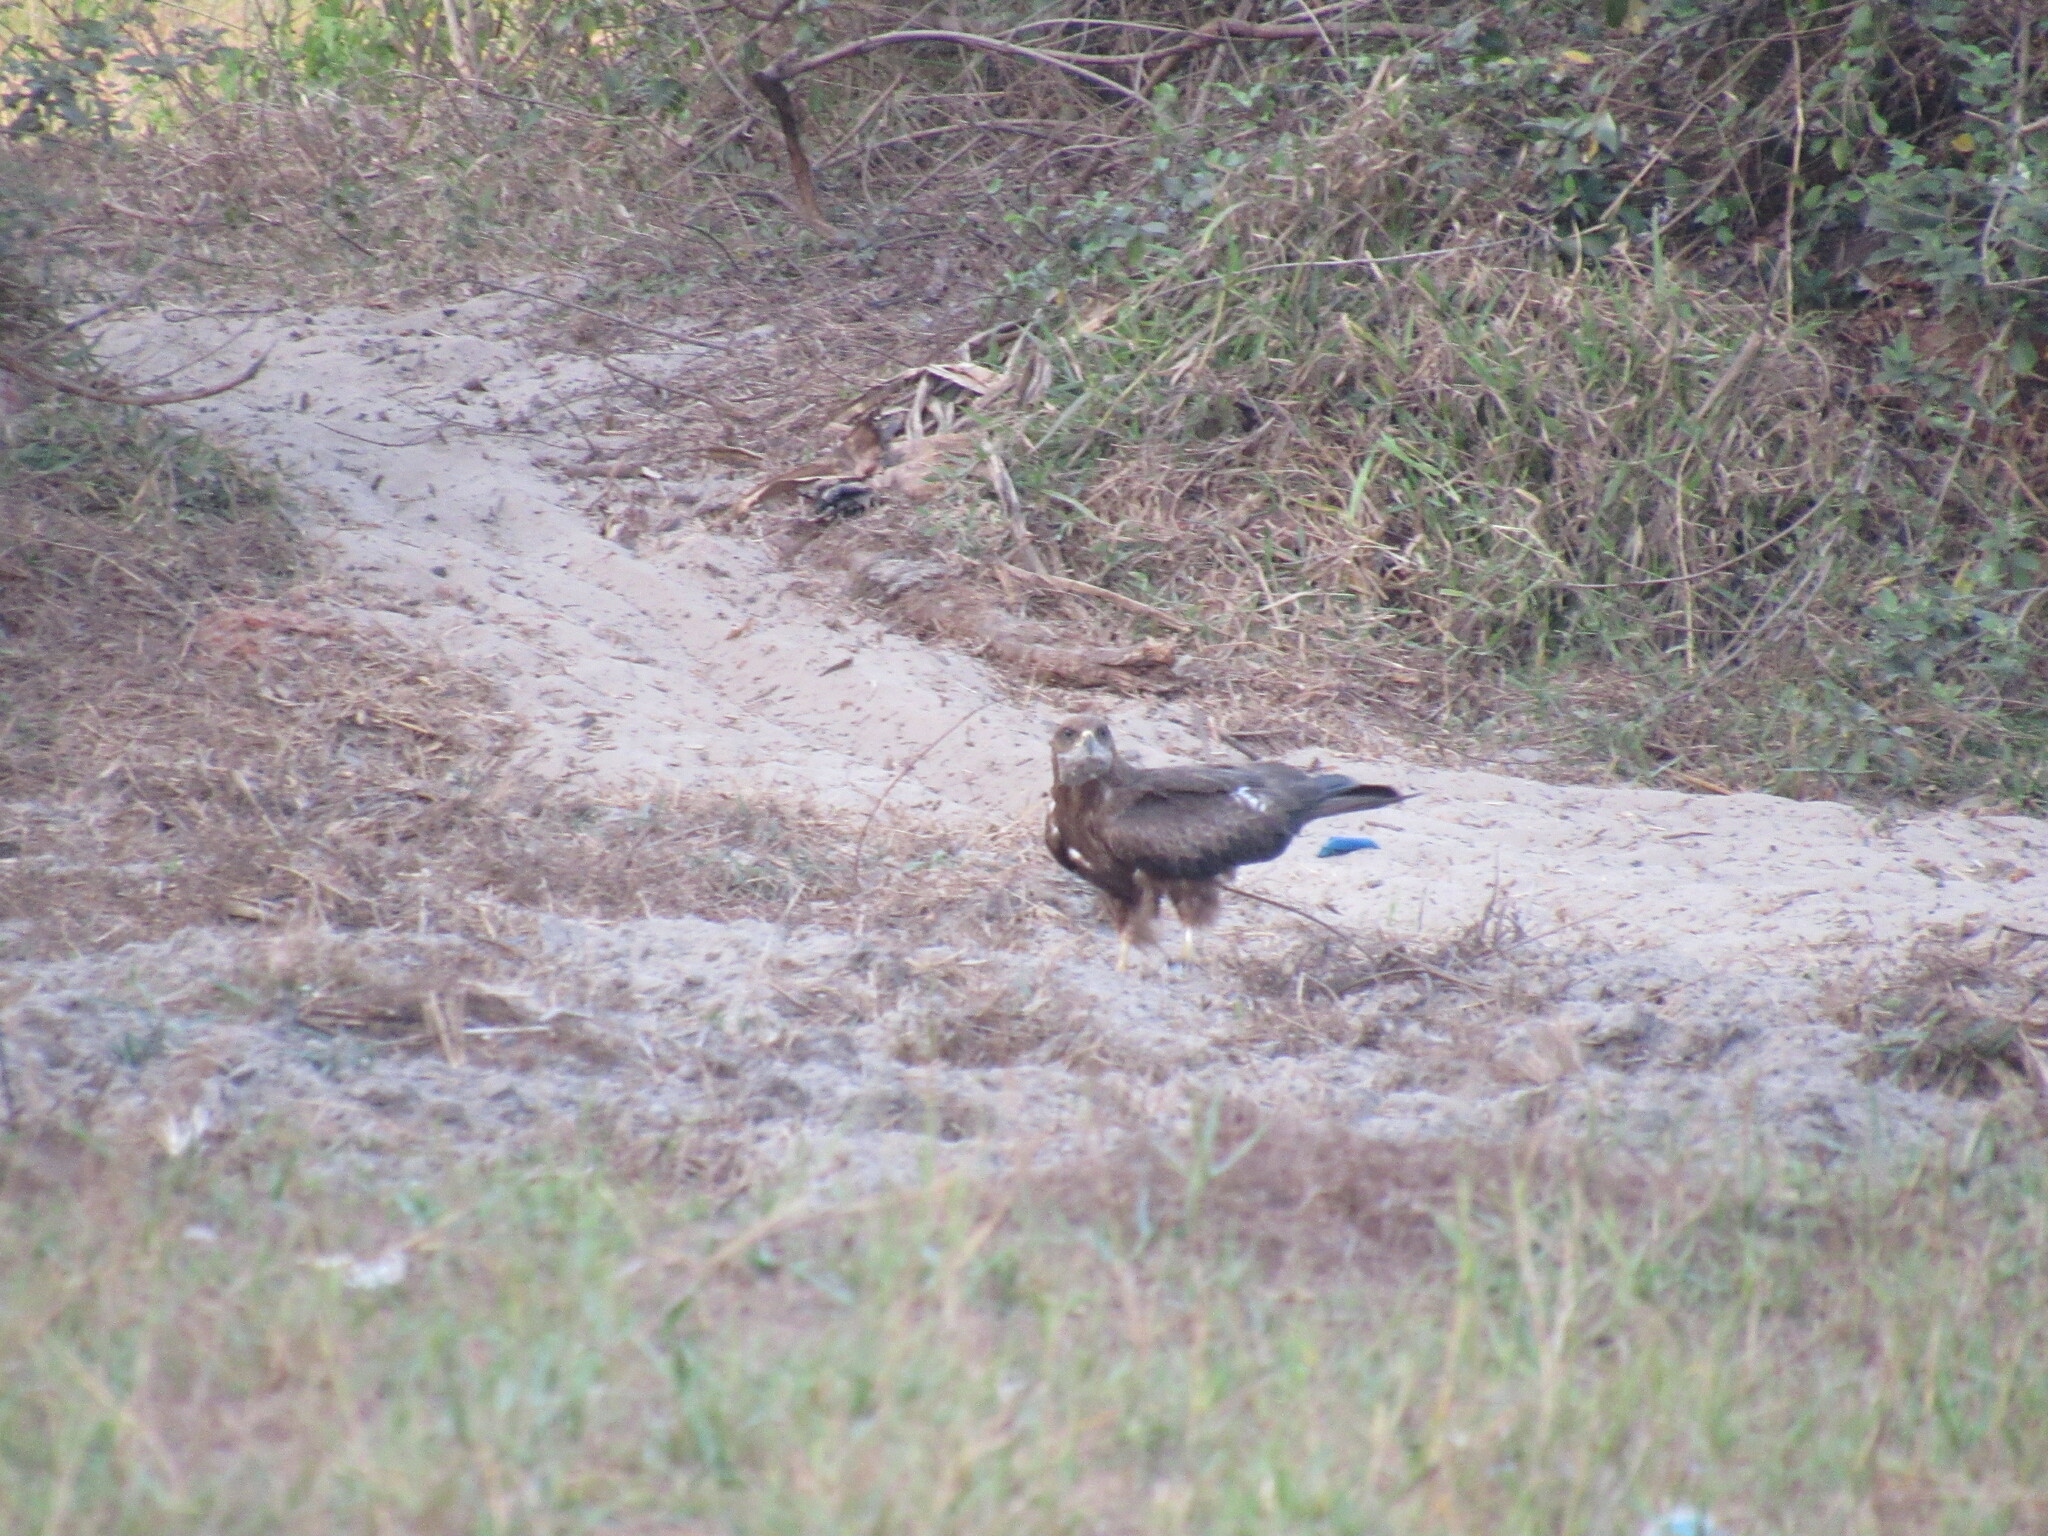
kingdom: Animalia
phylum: Chordata
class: Aves
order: Accipitriformes
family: Accipitridae
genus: Milvus
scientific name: Milvus migrans
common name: Black kite
